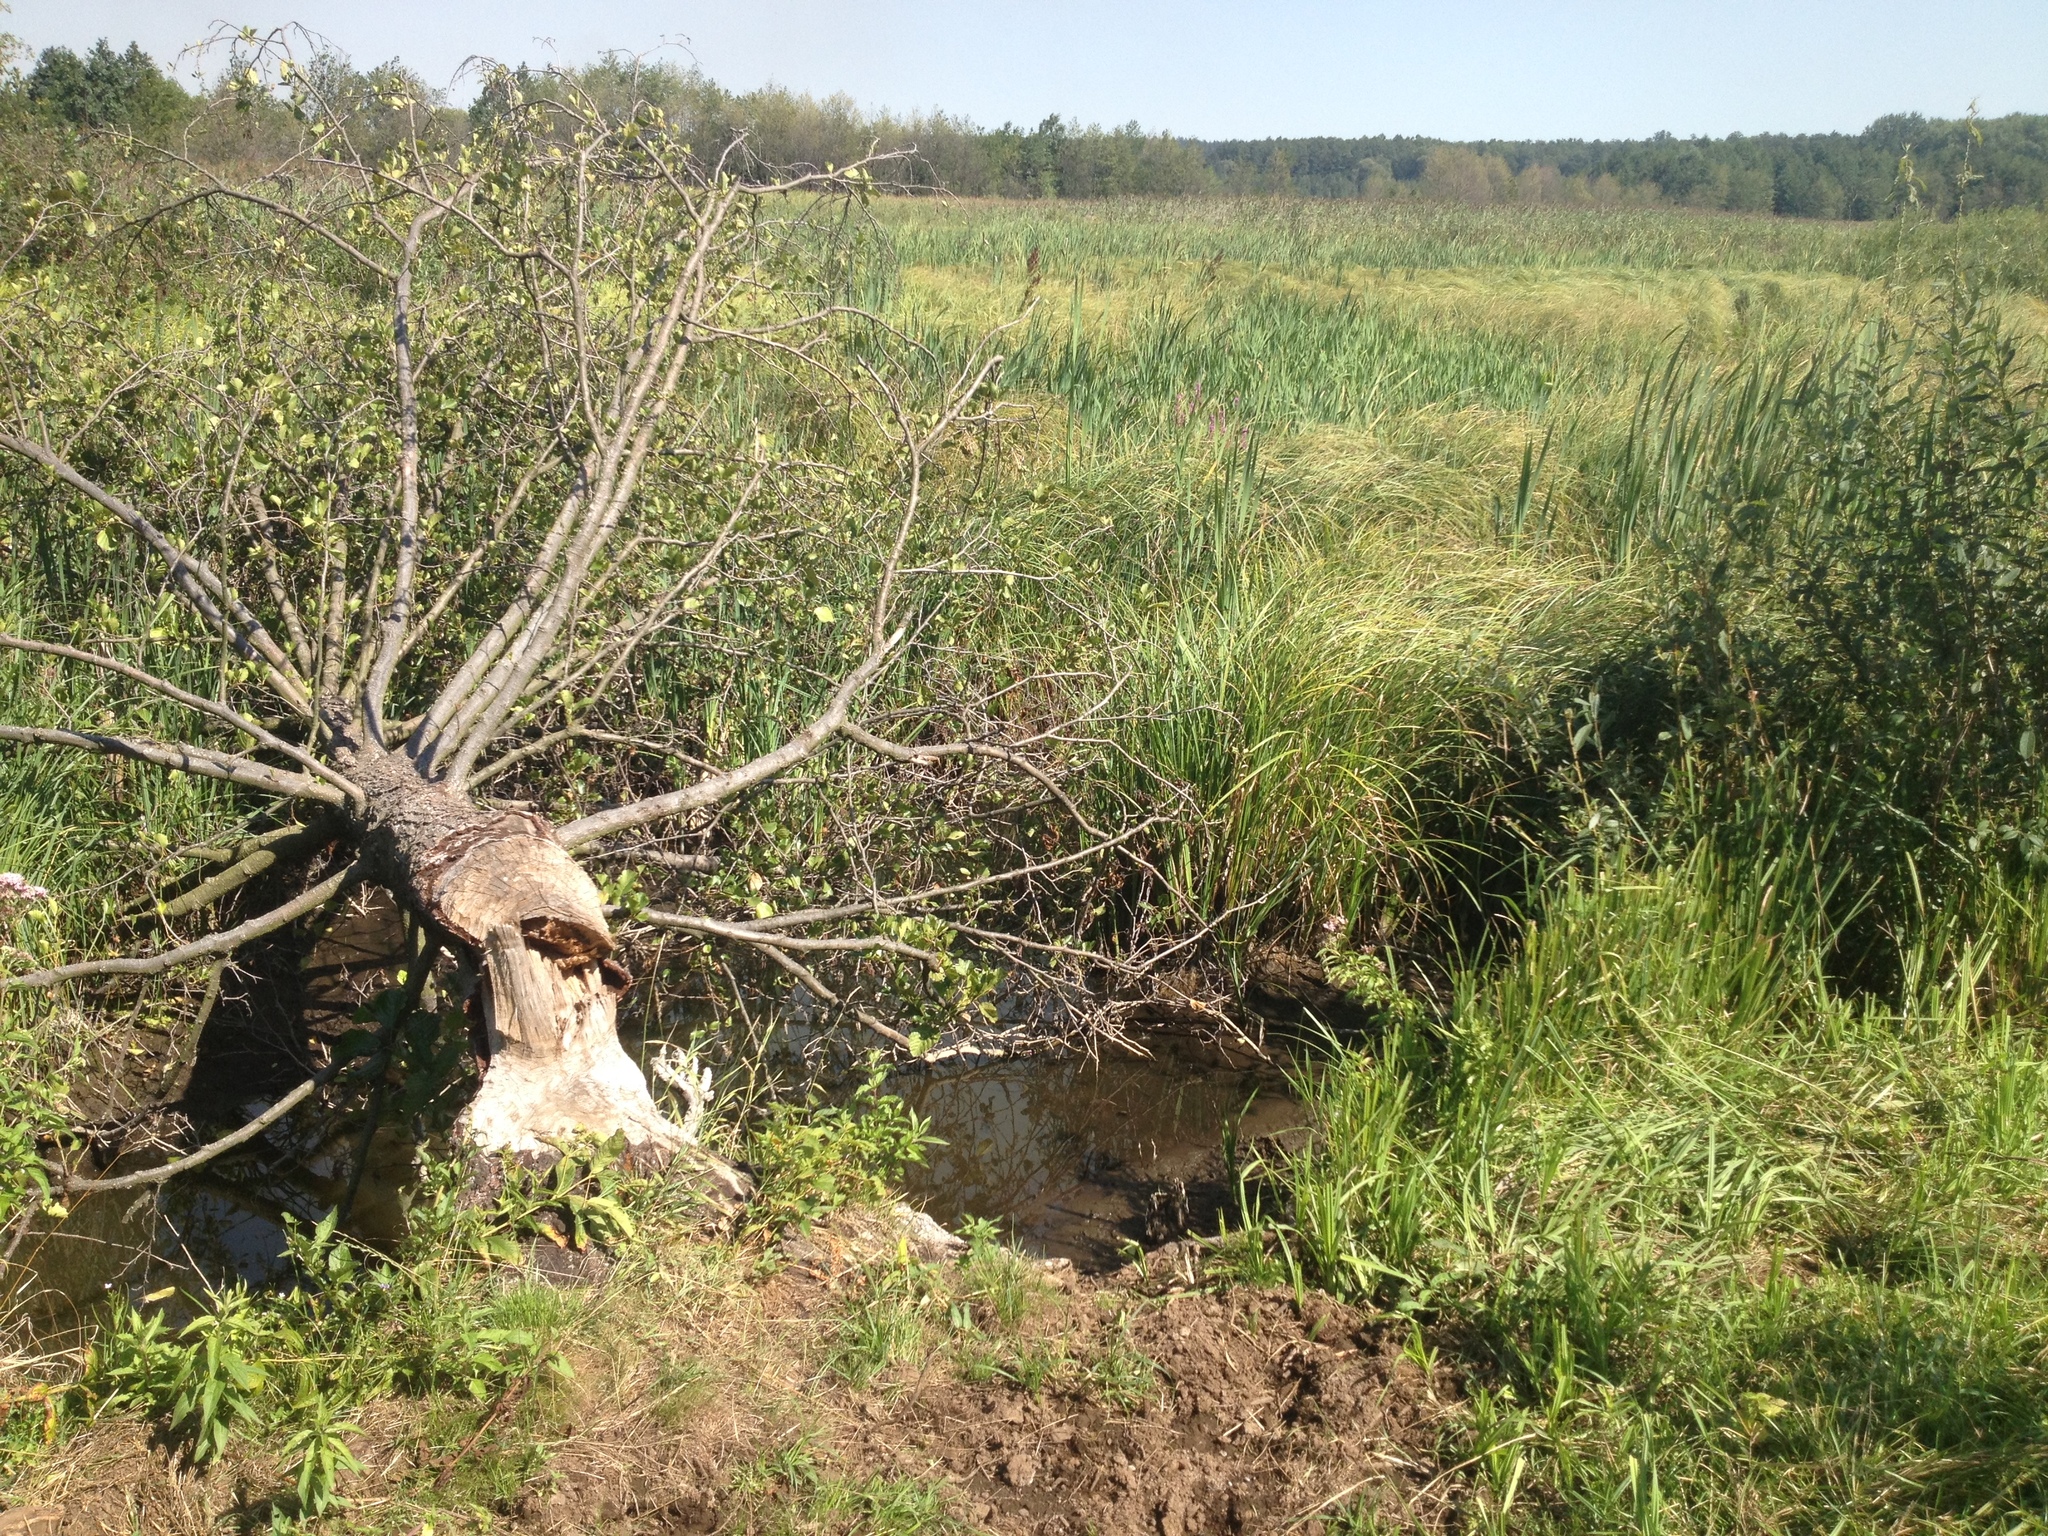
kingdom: Animalia
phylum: Chordata
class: Mammalia
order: Rodentia
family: Castoridae
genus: Castor
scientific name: Castor fiber
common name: Eurasian beaver
